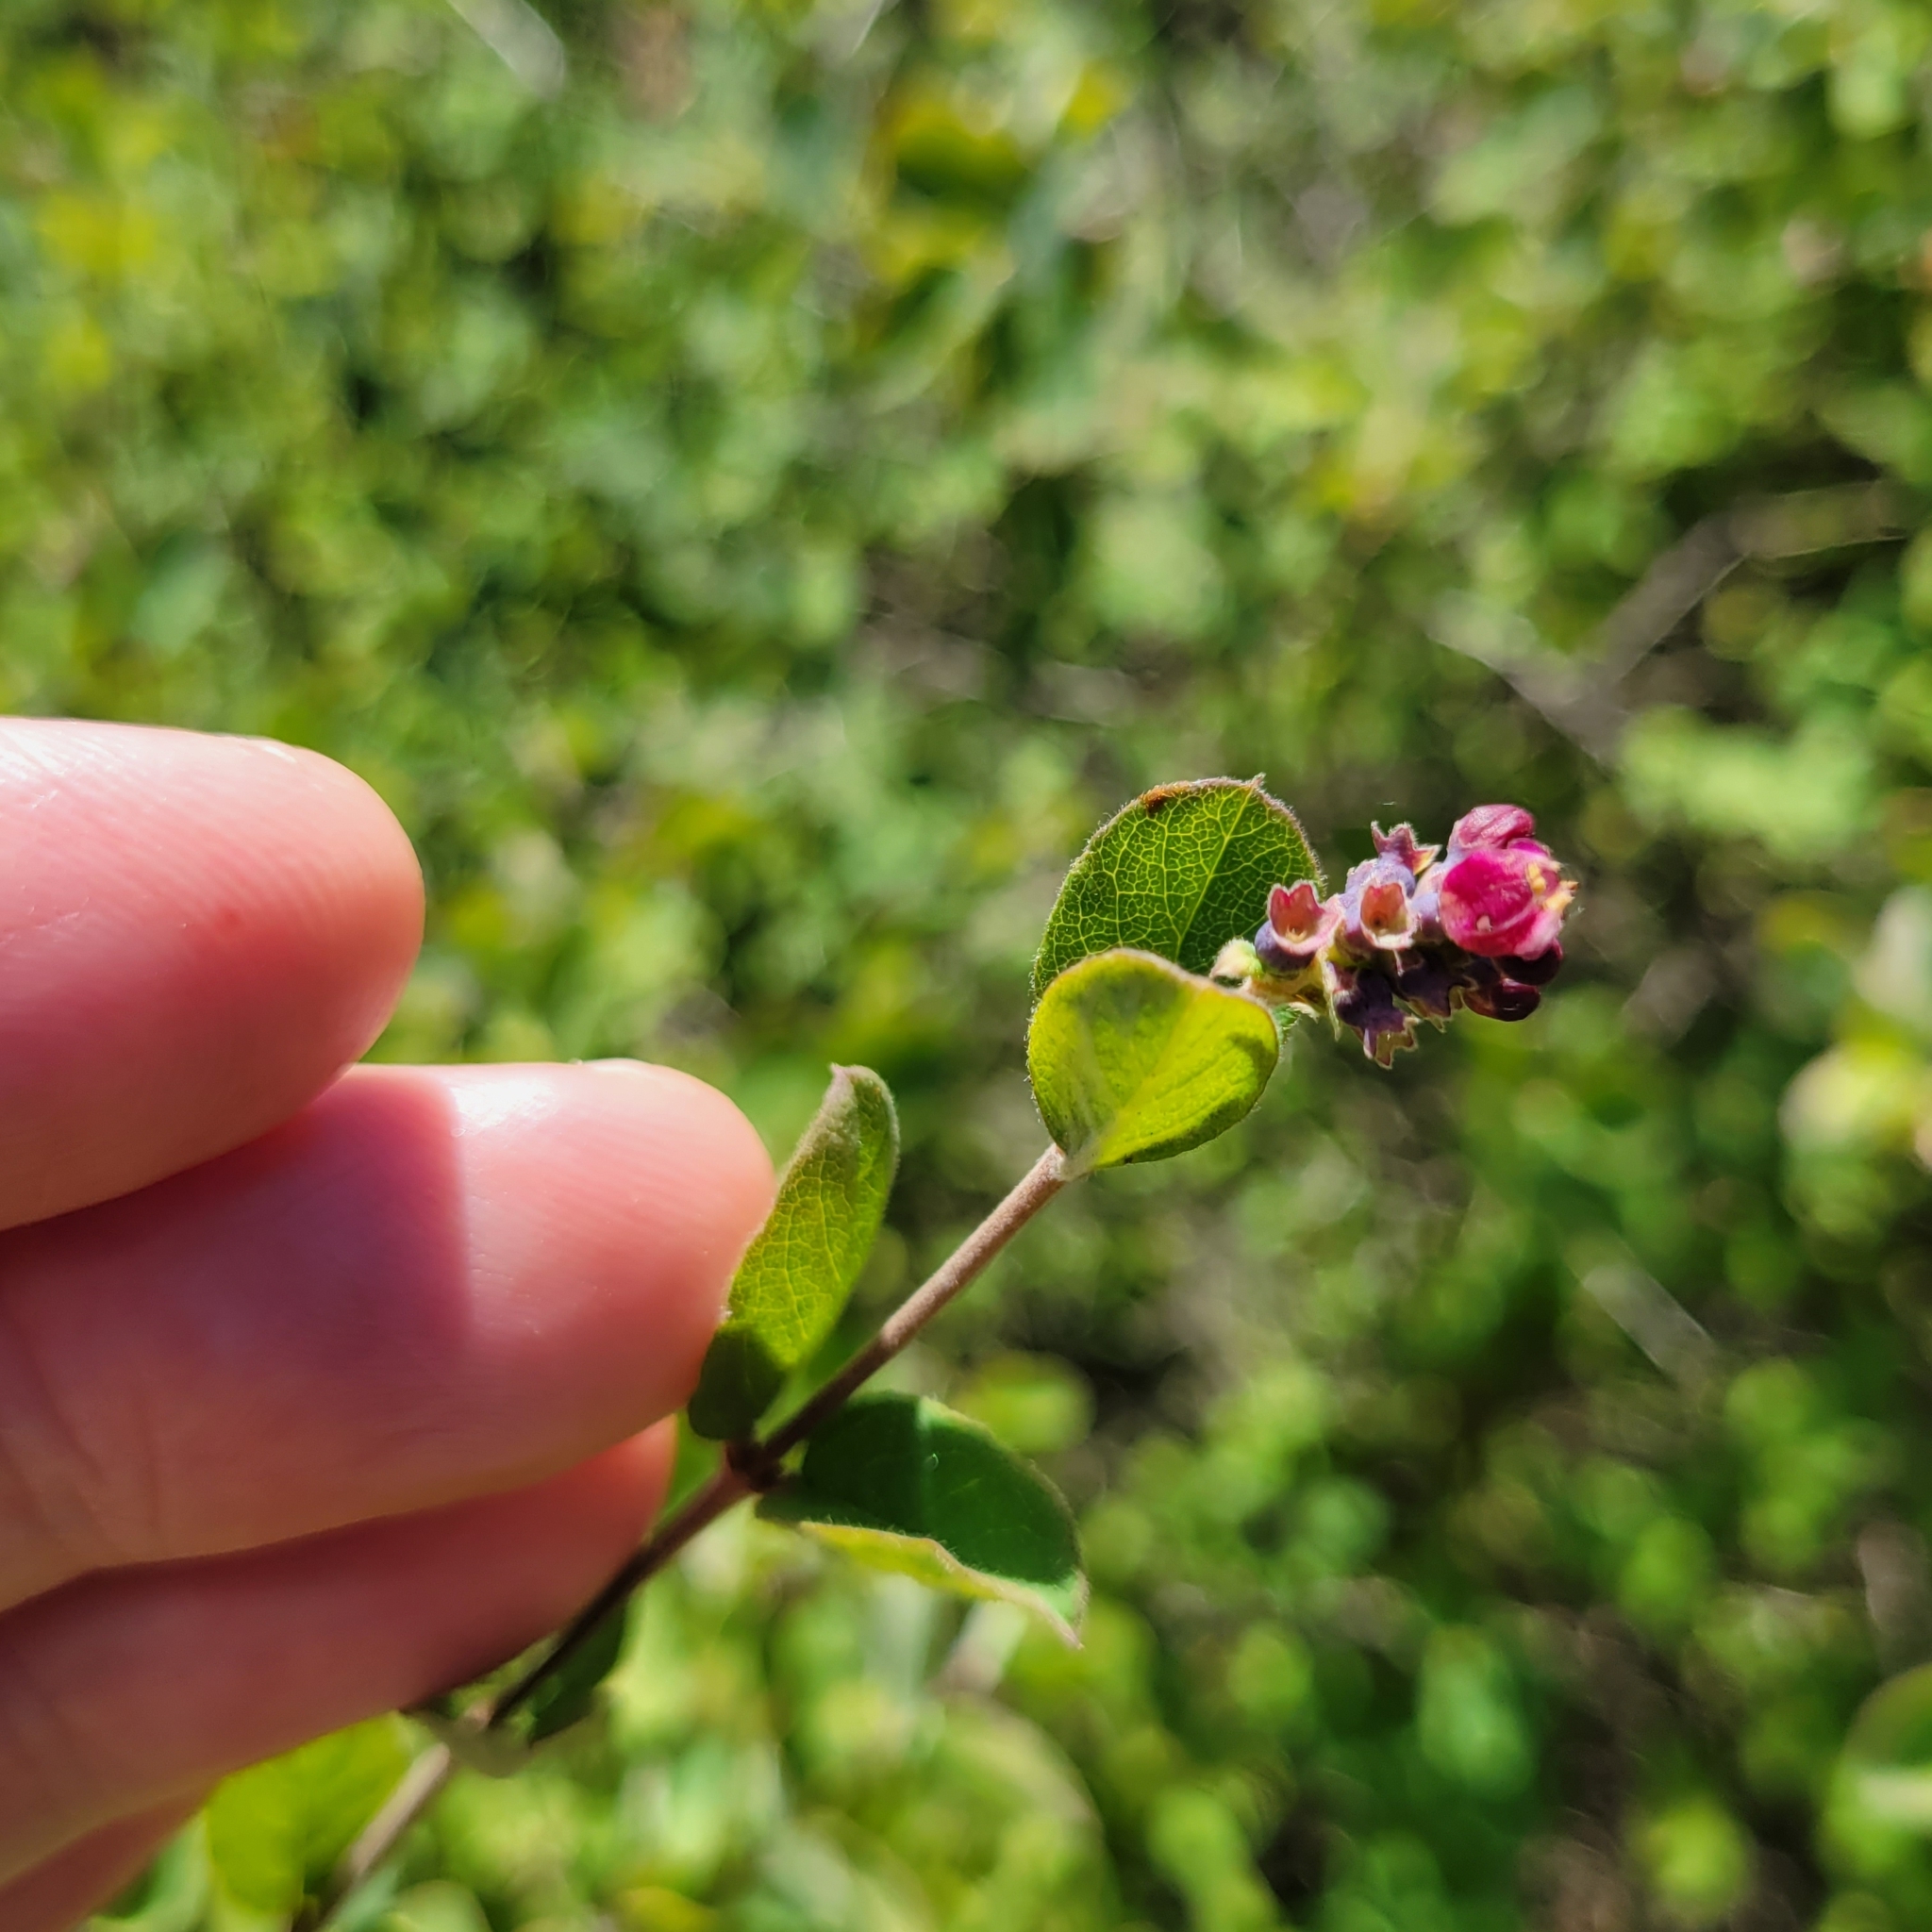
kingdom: Plantae
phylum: Tracheophyta
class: Magnoliopsida
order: Dipsacales
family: Caprifoliaceae
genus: Symphoricarpos
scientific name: Symphoricarpos mollis
